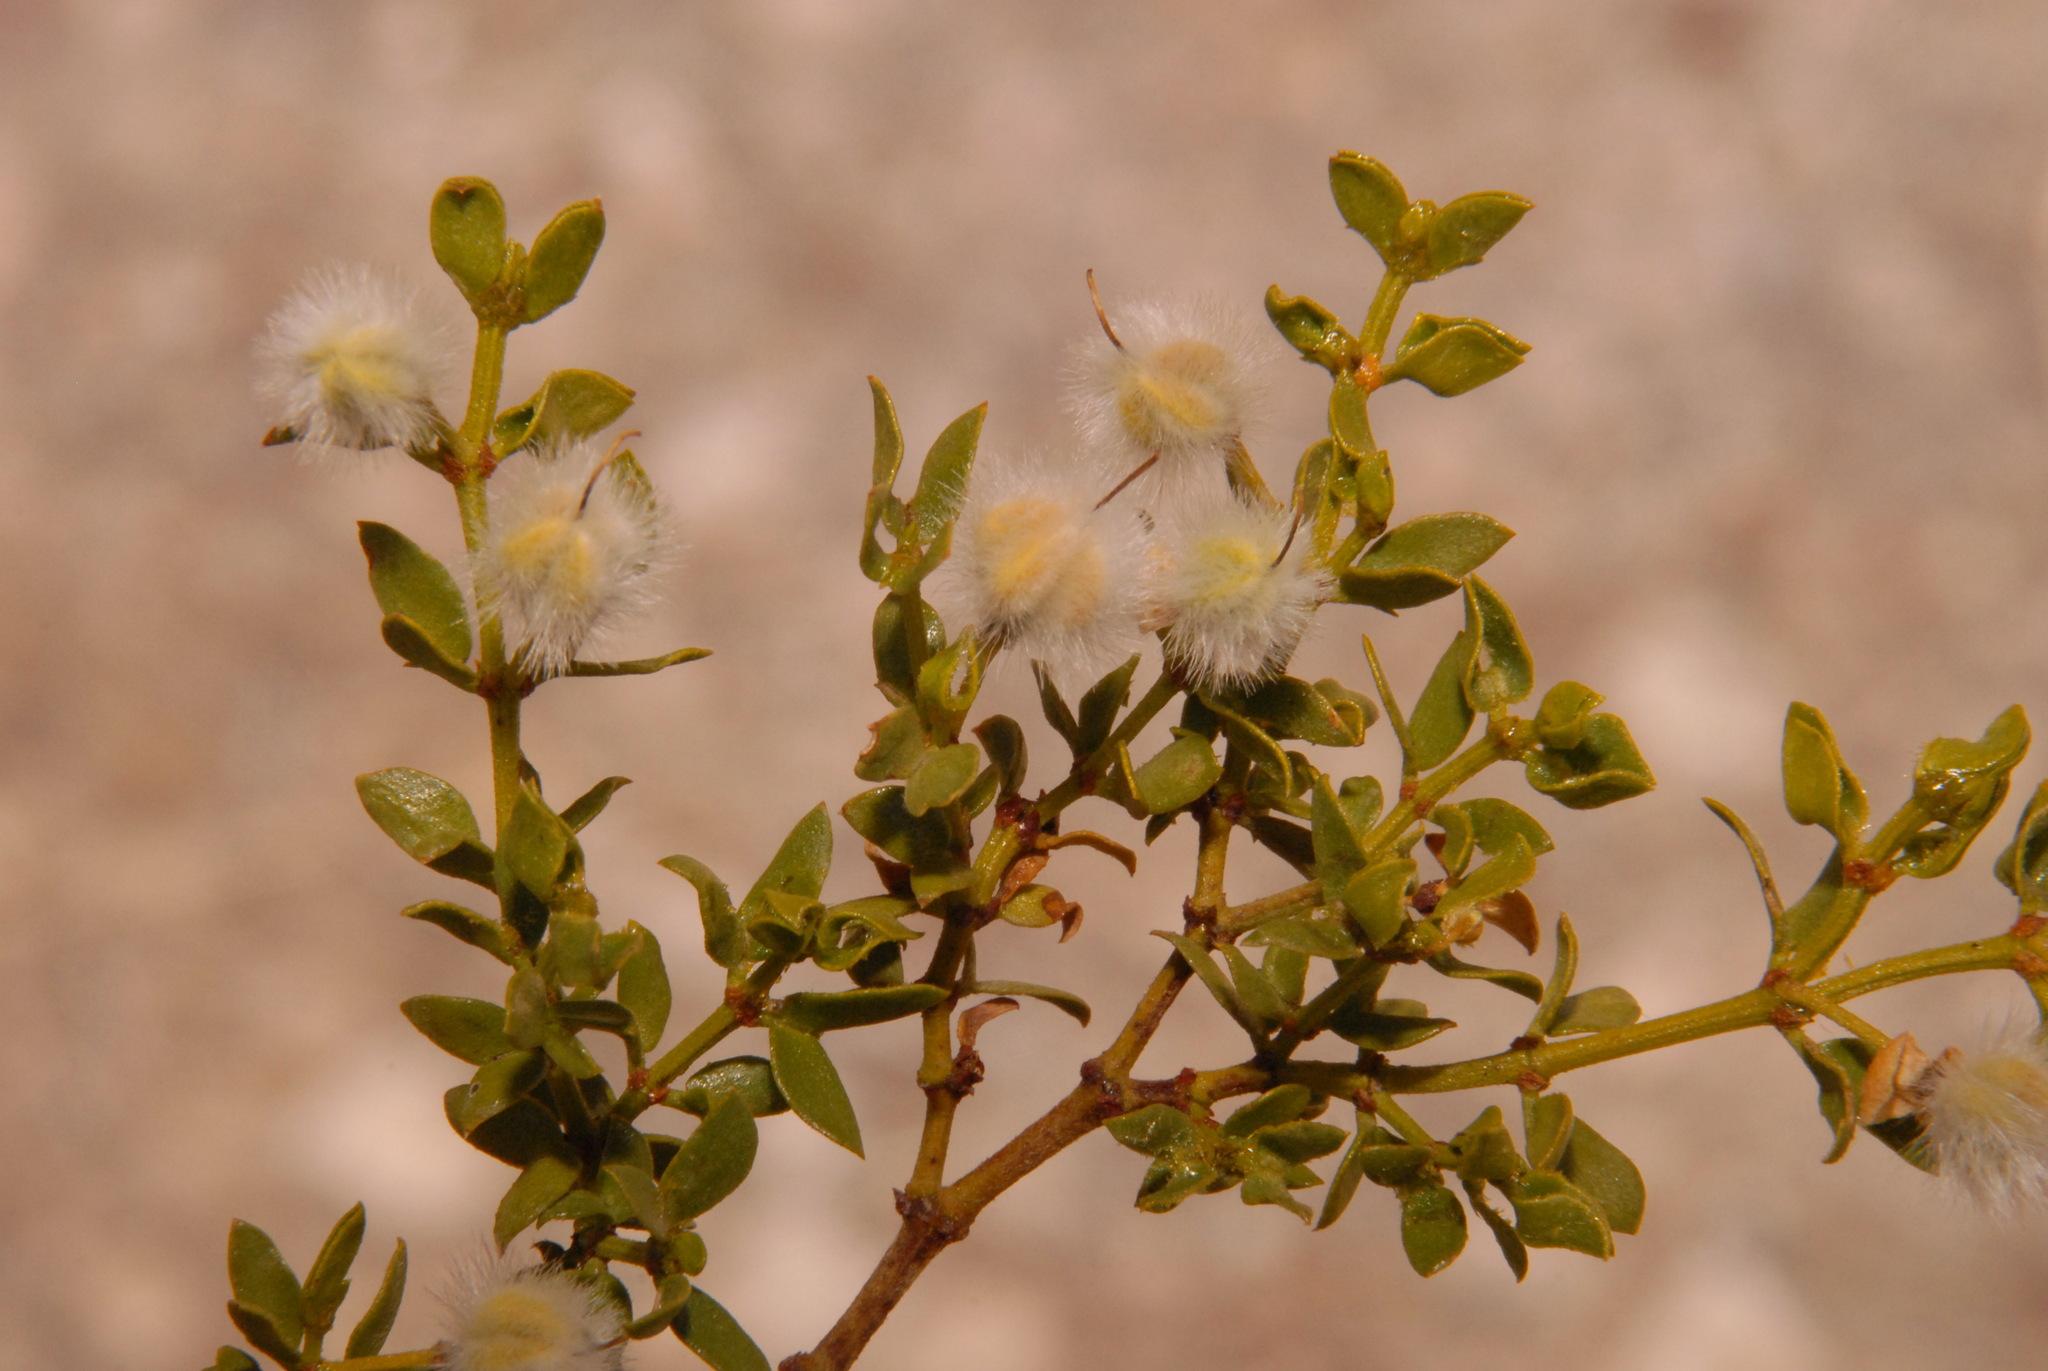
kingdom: Plantae
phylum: Tracheophyta
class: Magnoliopsida
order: Zygophyllales
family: Zygophyllaceae
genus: Larrea
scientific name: Larrea tridentata
